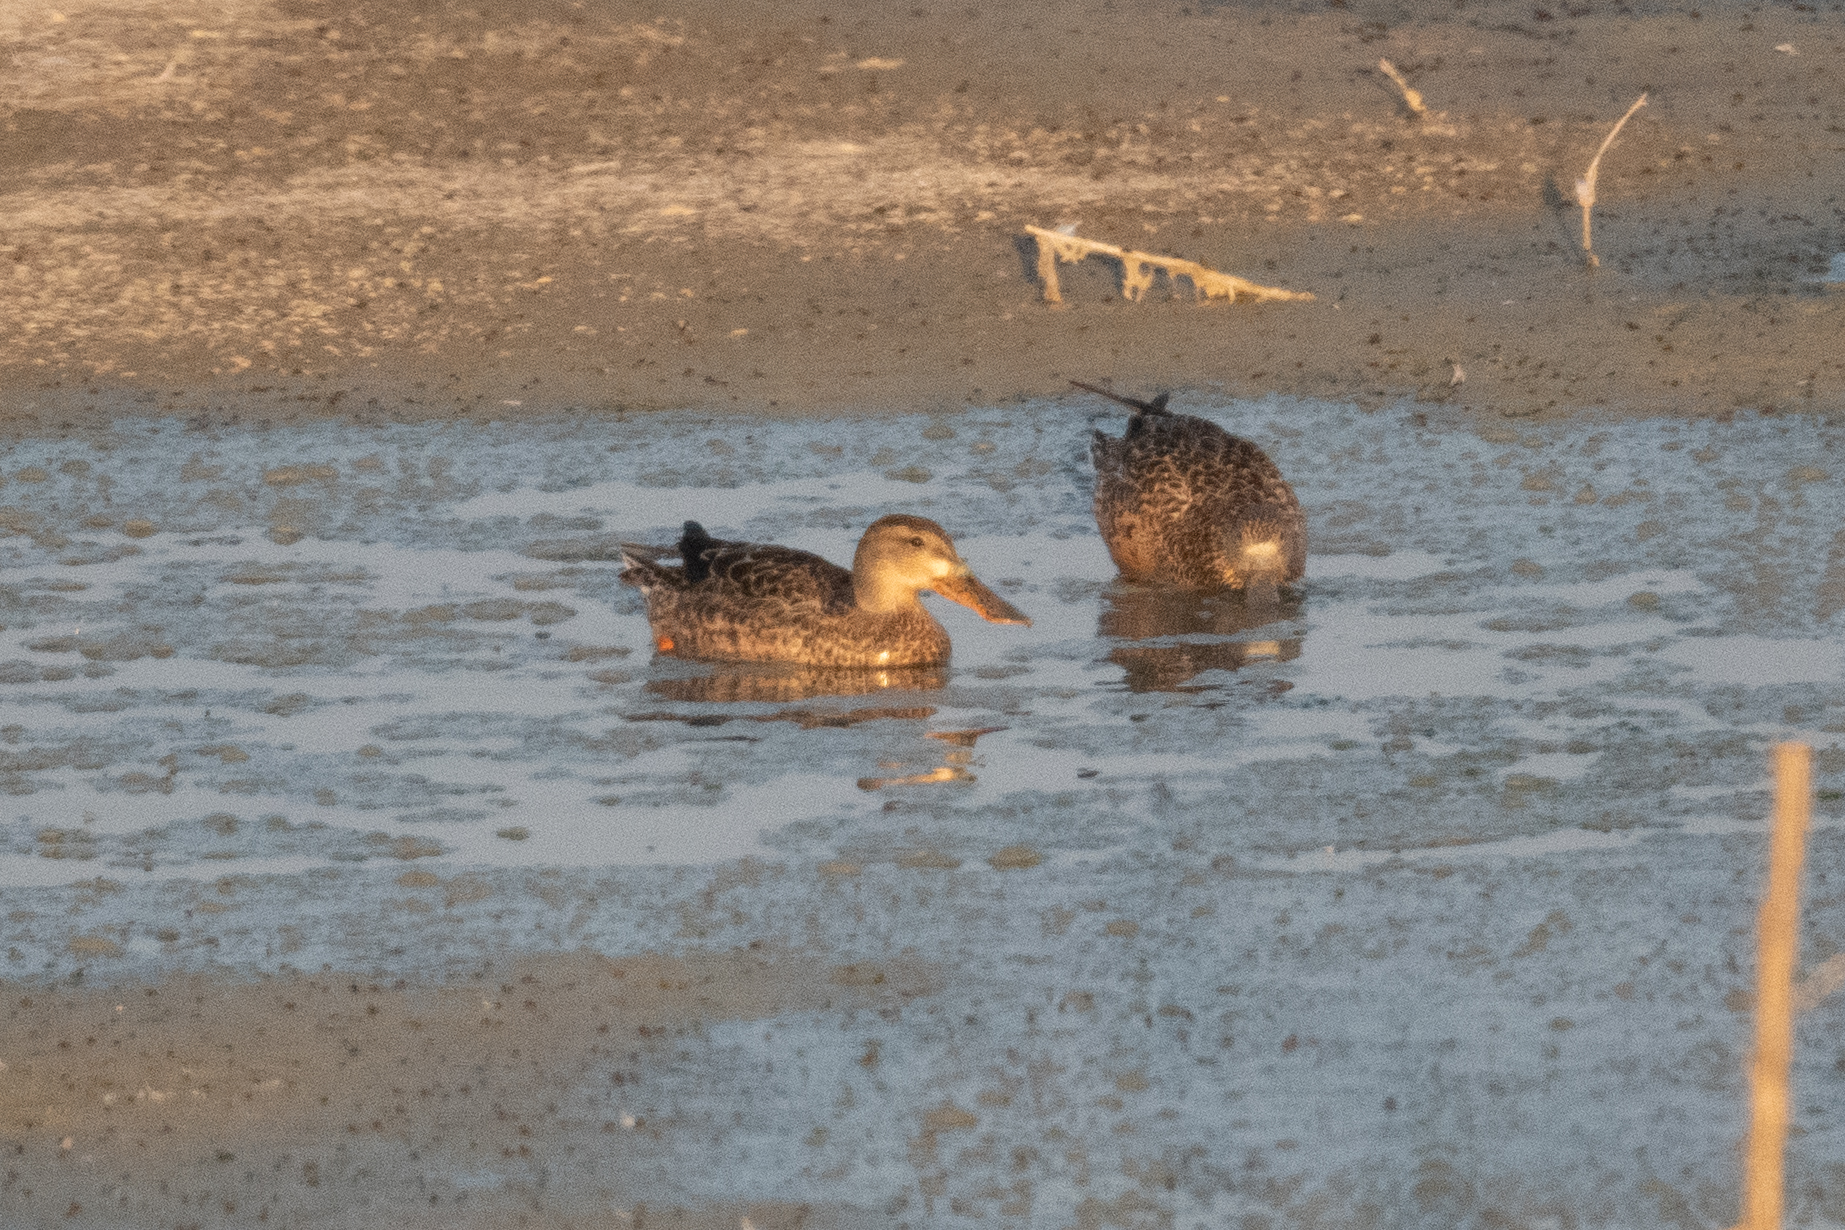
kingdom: Animalia
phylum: Chordata
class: Aves
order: Anseriformes
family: Anatidae
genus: Spatula
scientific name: Spatula clypeata
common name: Northern shoveler
